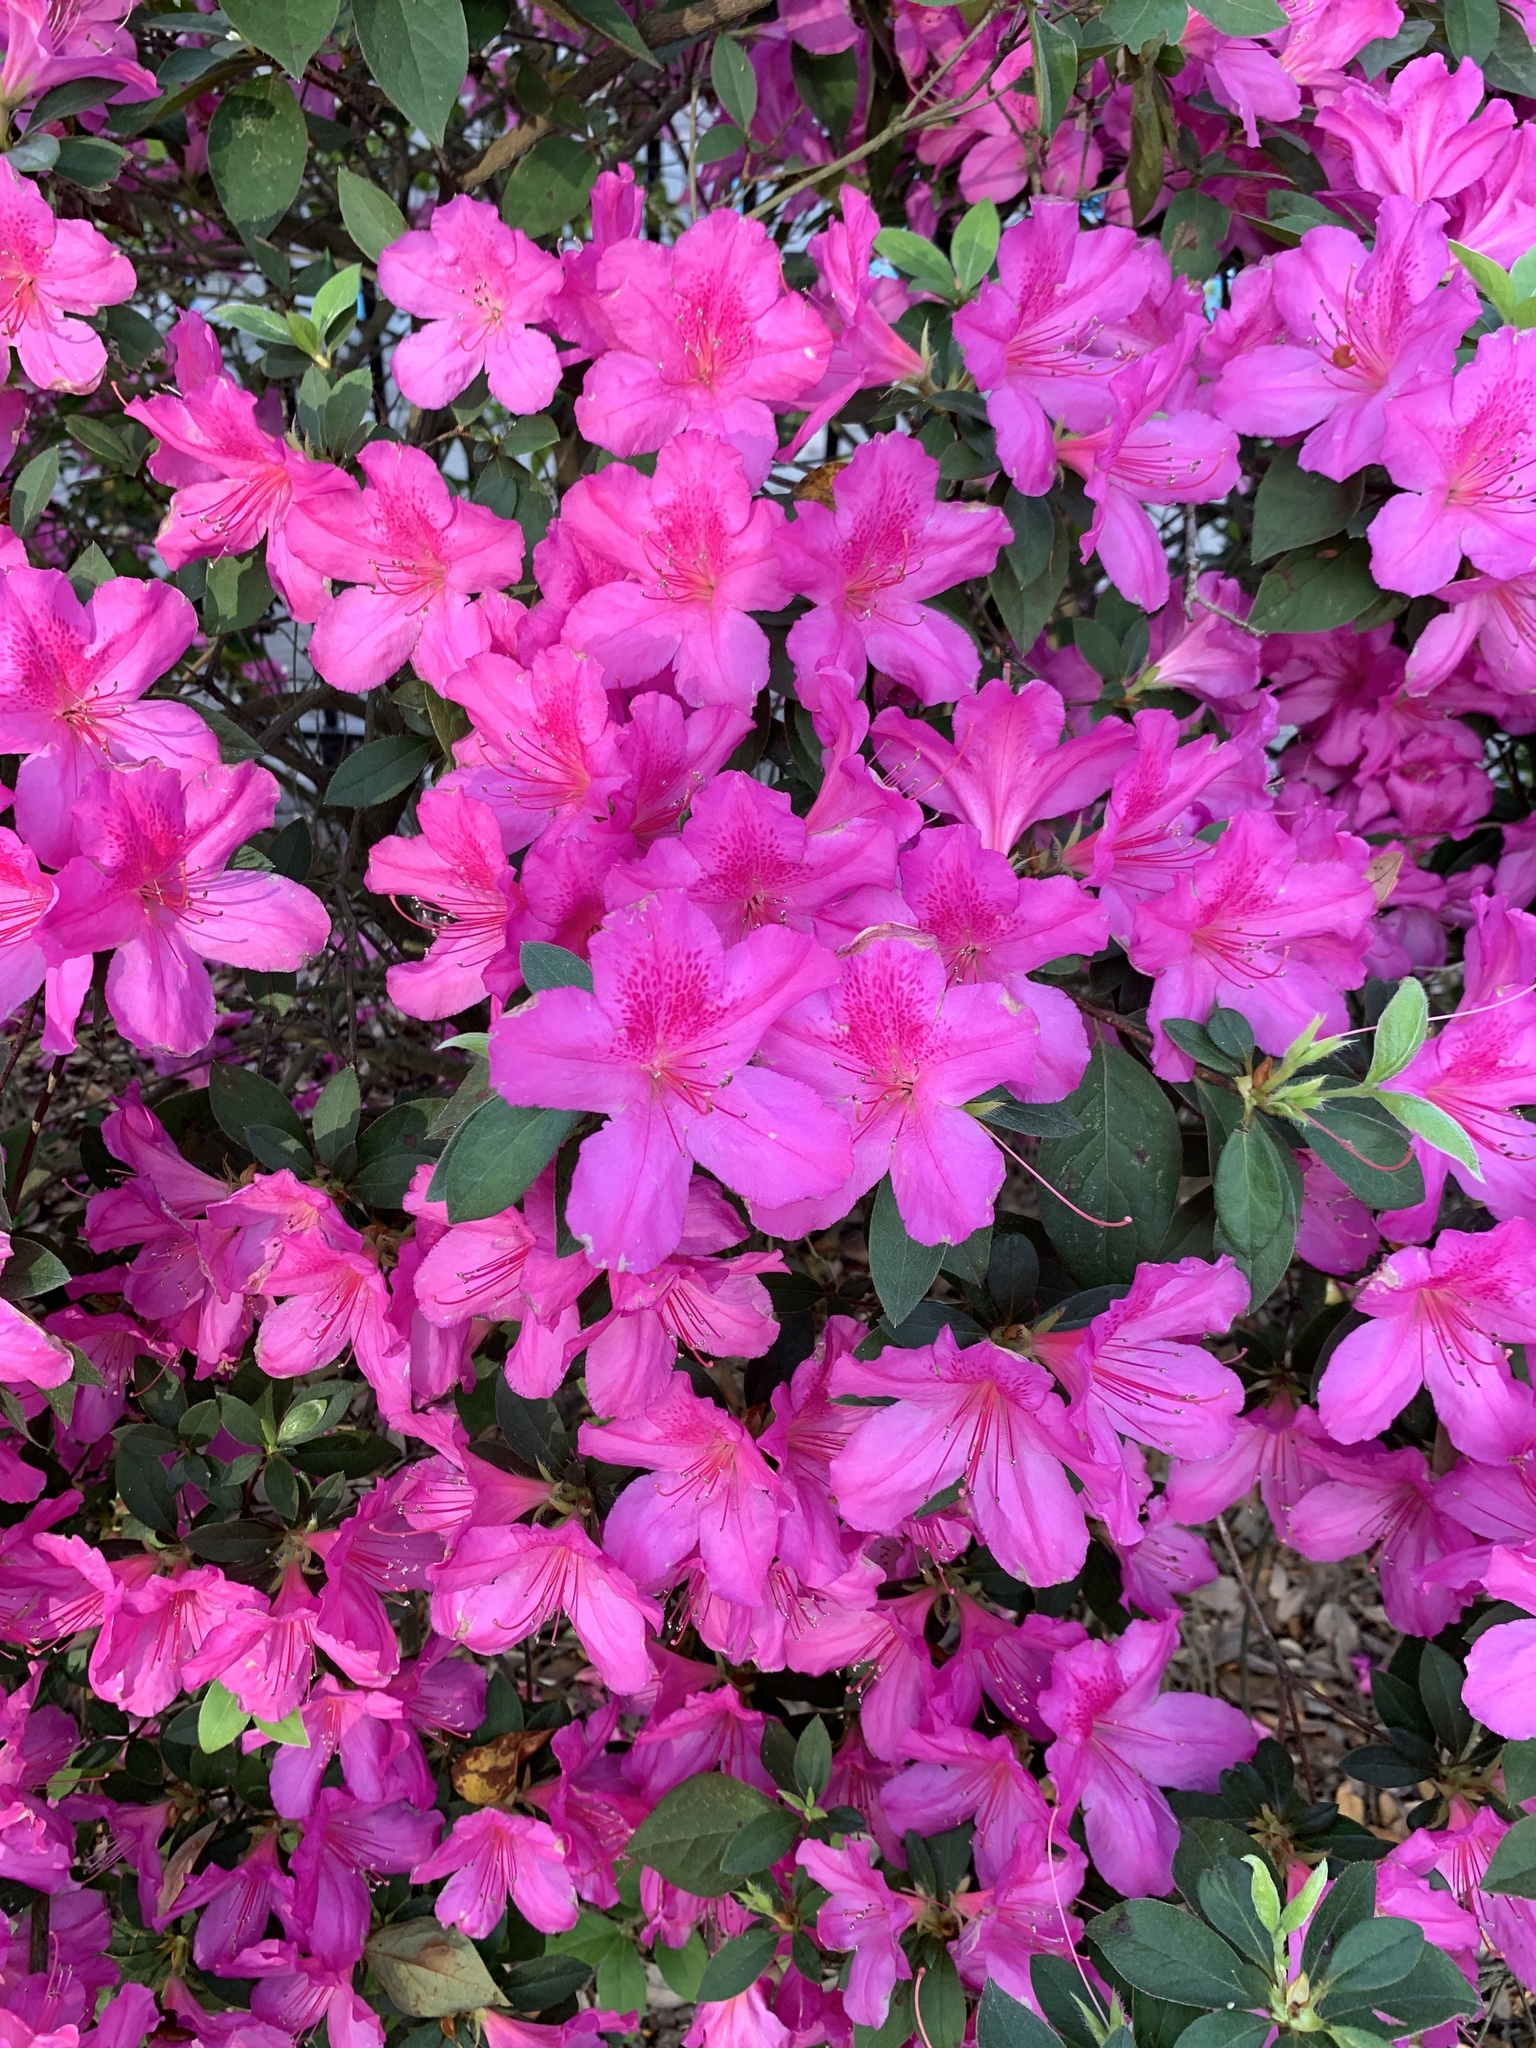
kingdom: Plantae
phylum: Tracheophyta
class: Magnoliopsida
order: Ericales
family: Ericaceae
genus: Rhododendron
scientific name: Rhododendron indicum
